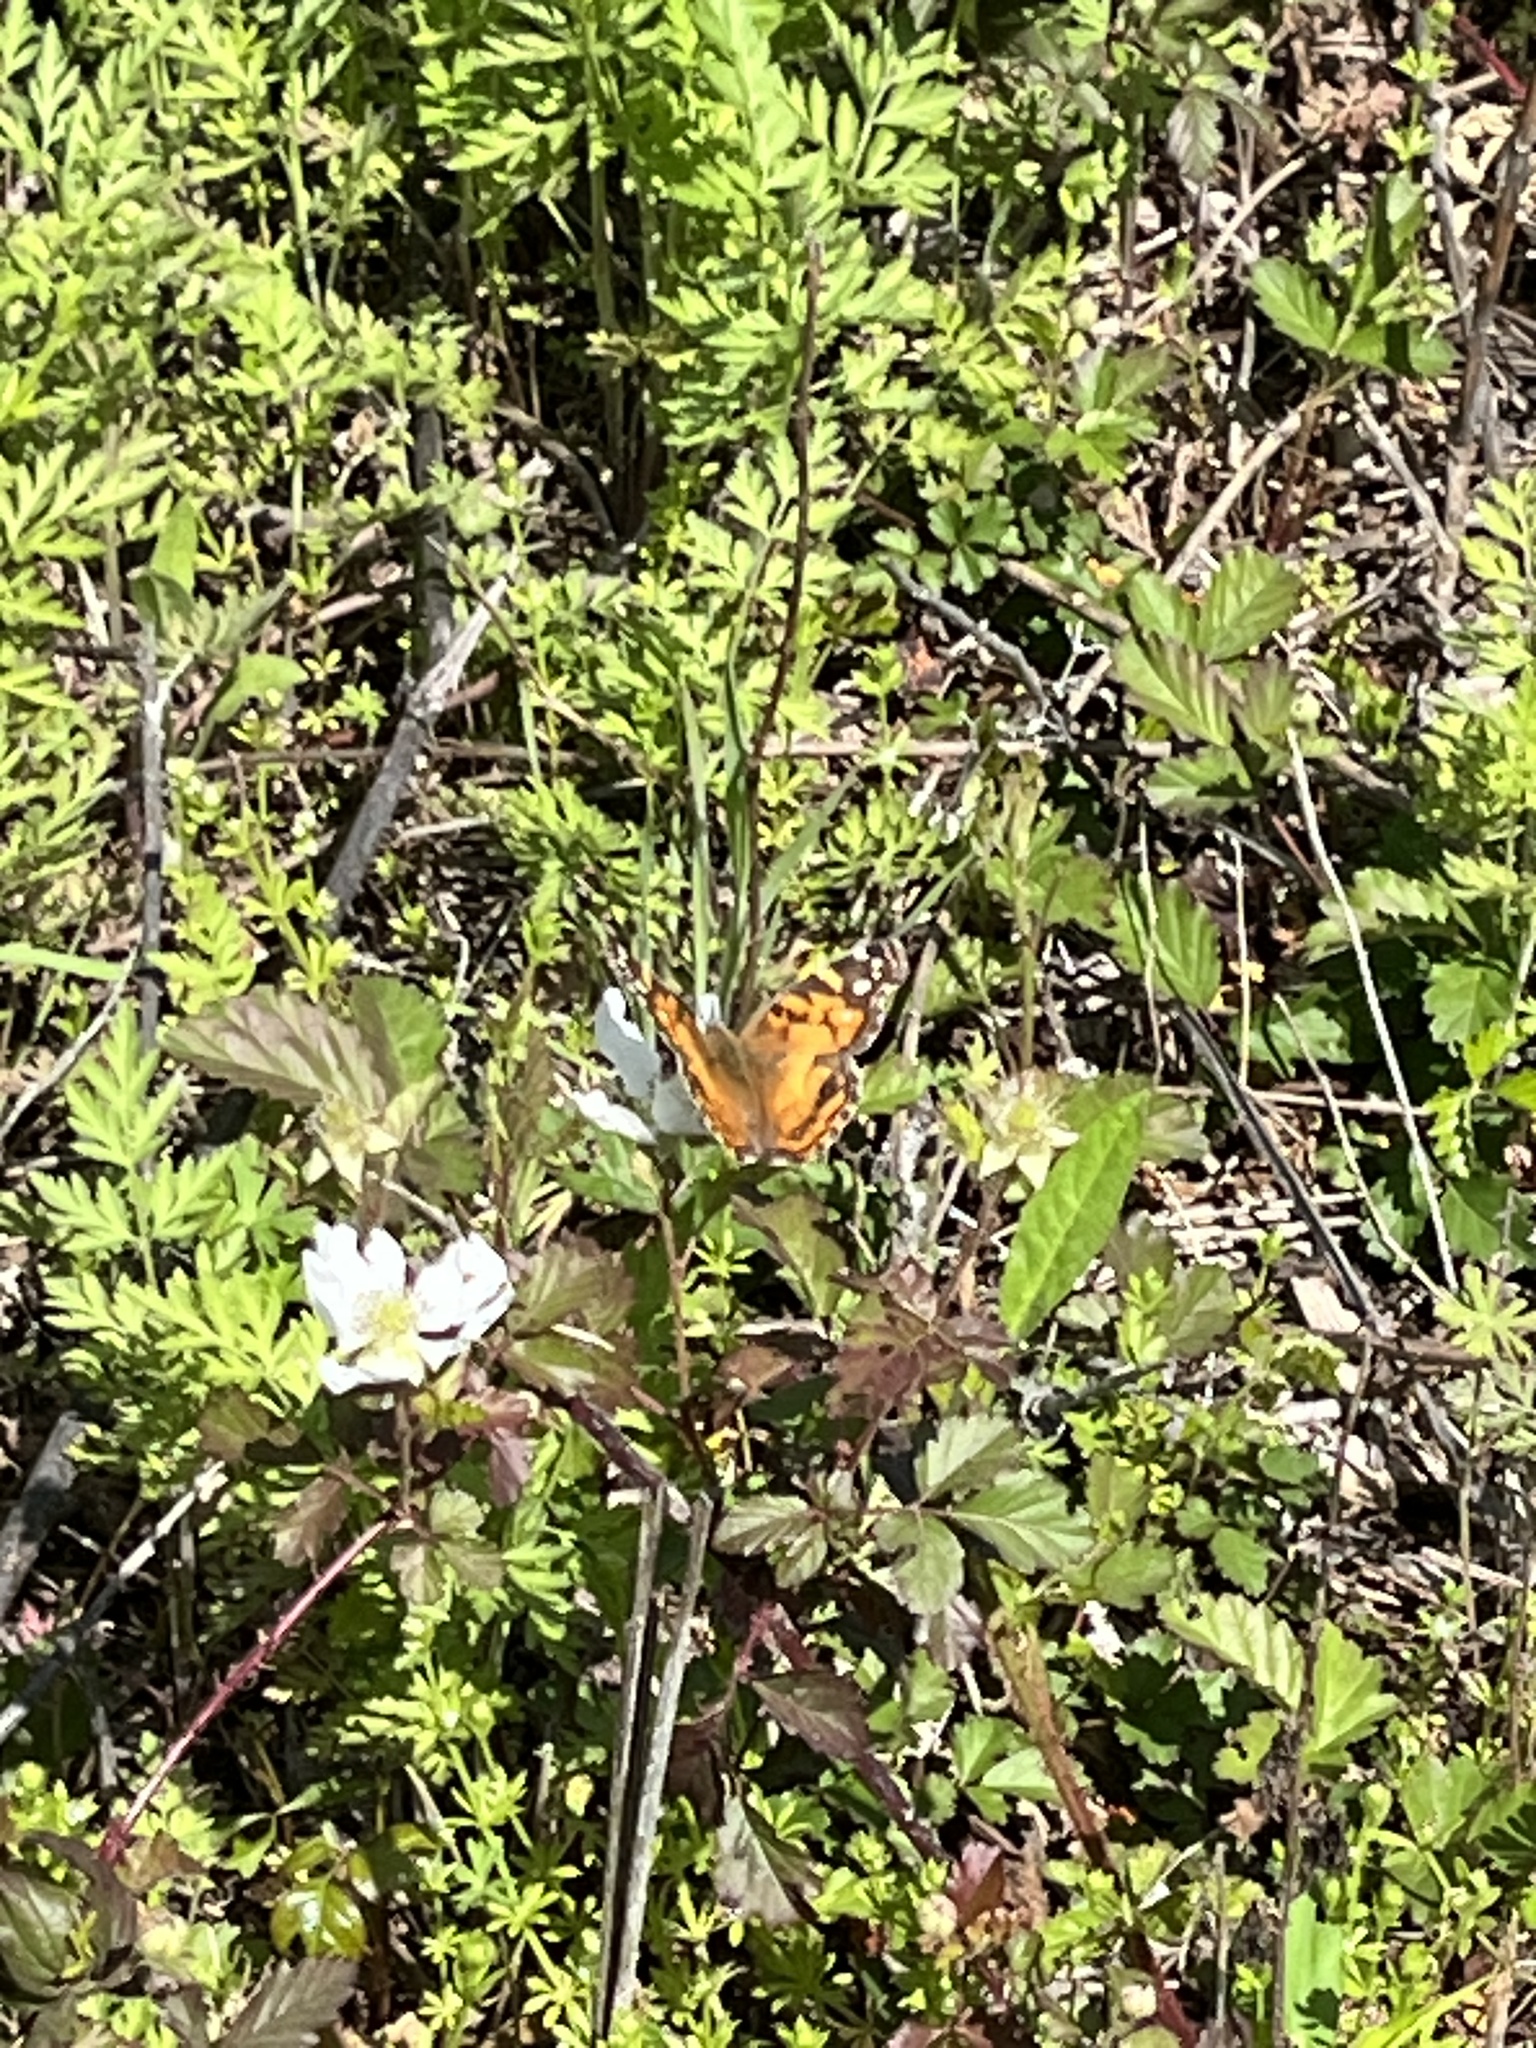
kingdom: Animalia
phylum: Arthropoda
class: Insecta
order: Lepidoptera
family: Nymphalidae
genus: Vanessa
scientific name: Vanessa virginiensis
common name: American lady
